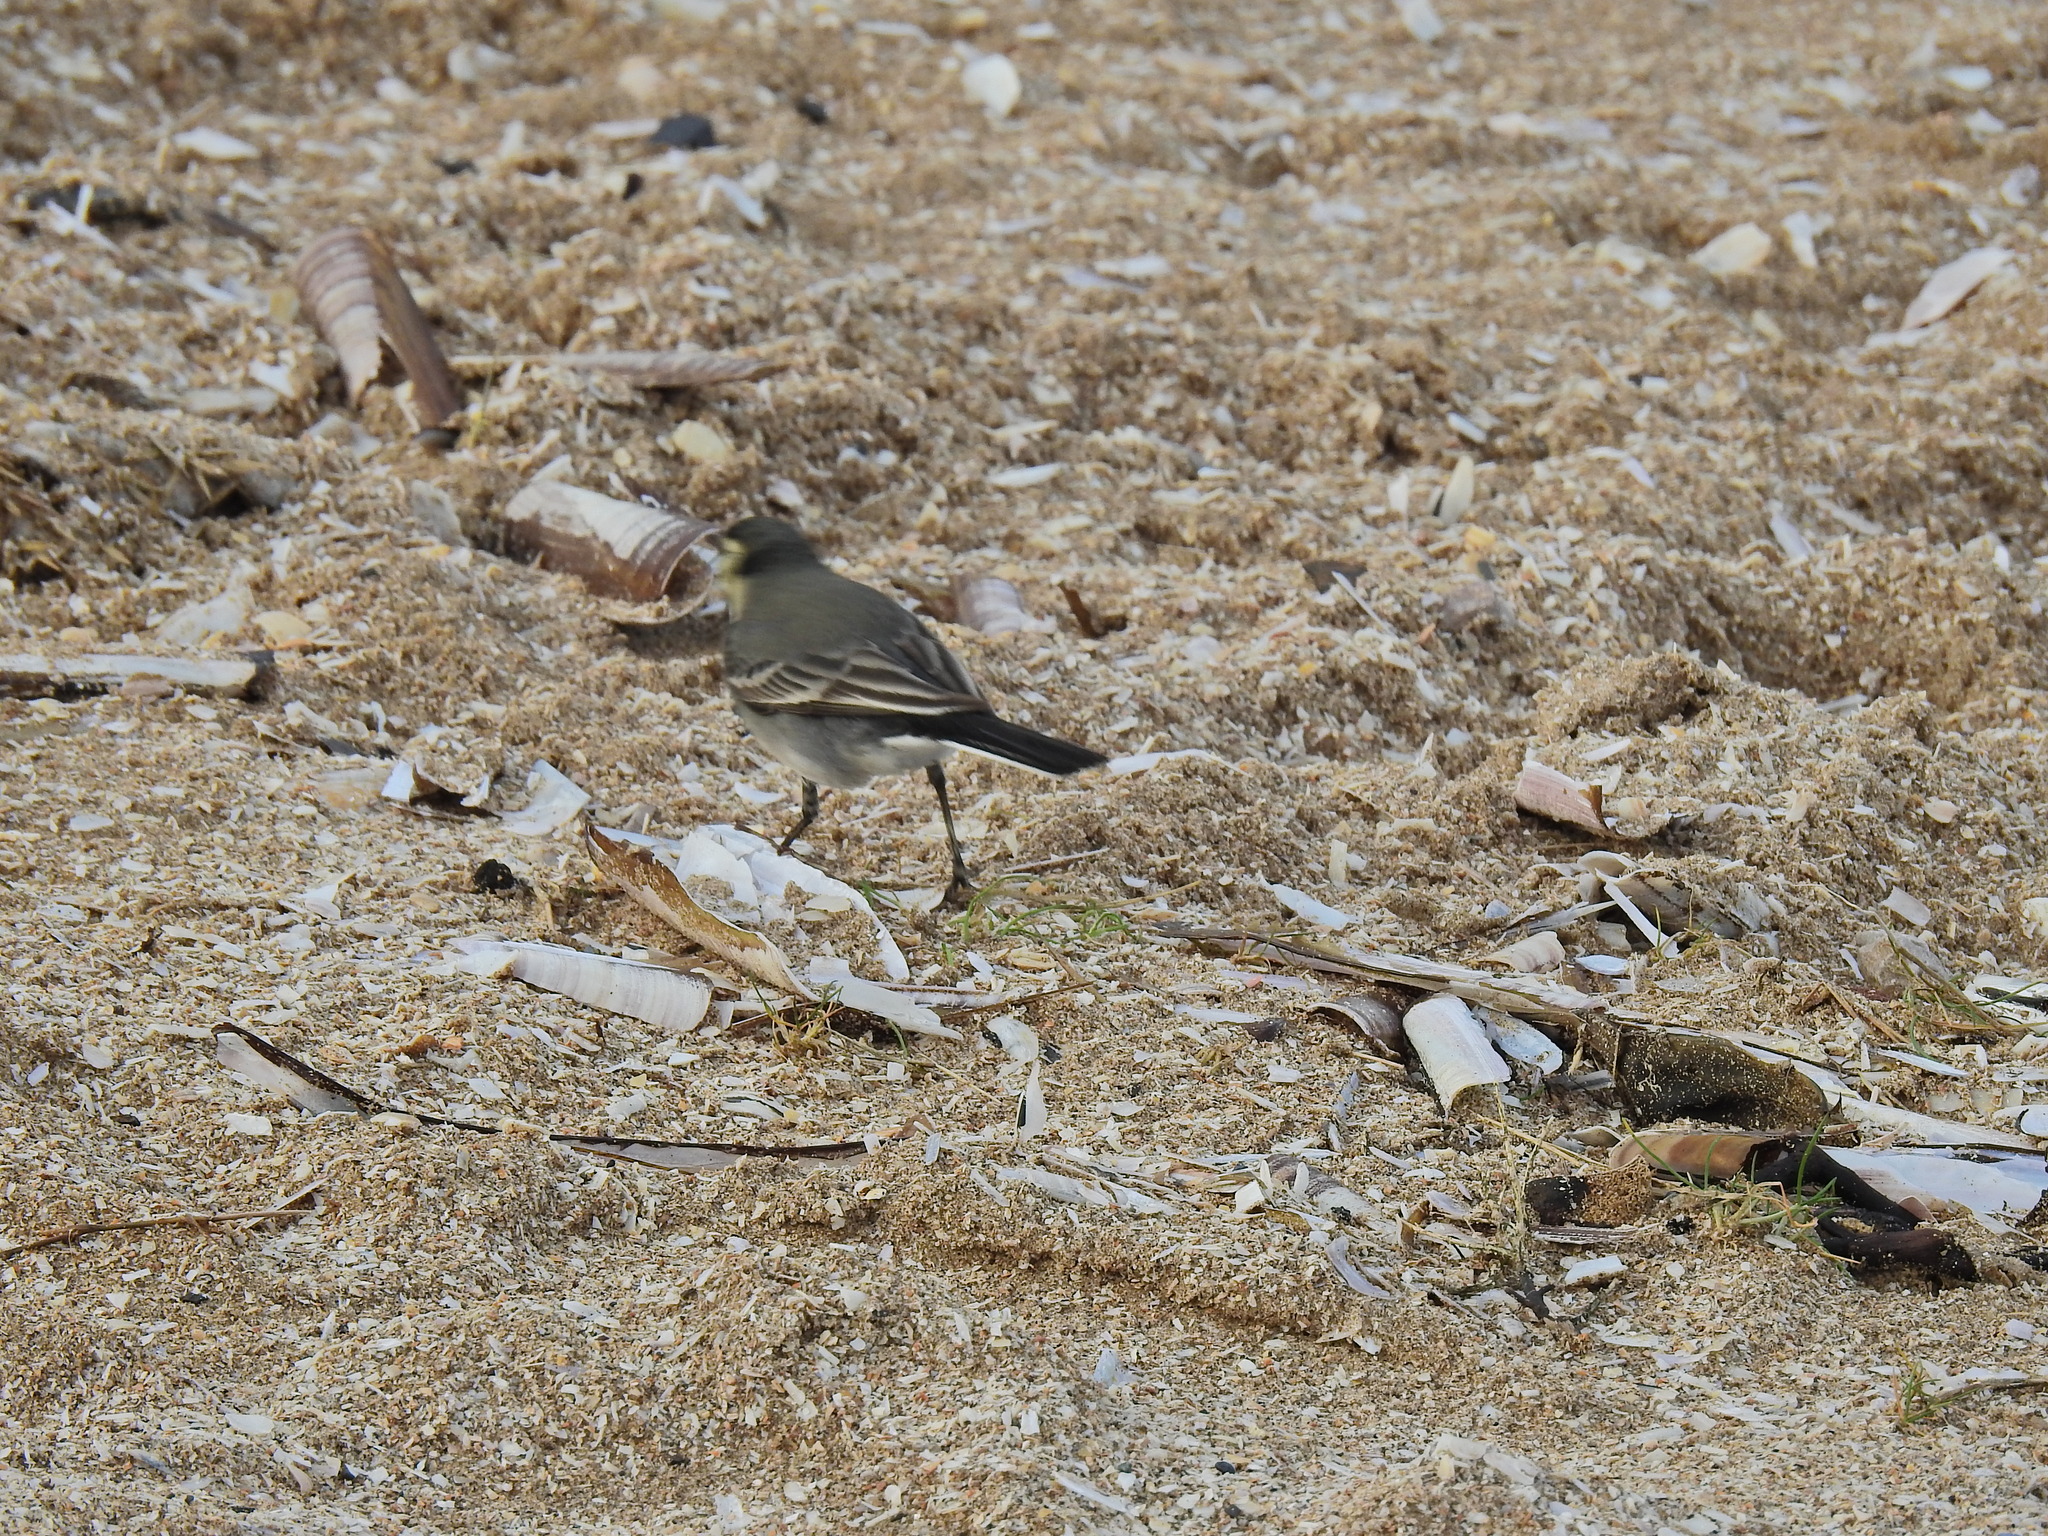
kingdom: Animalia
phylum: Chordata
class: Aves
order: Passeriformes
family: Motacillidae
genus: Motacilla
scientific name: Motacilla alba
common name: White wagtail
